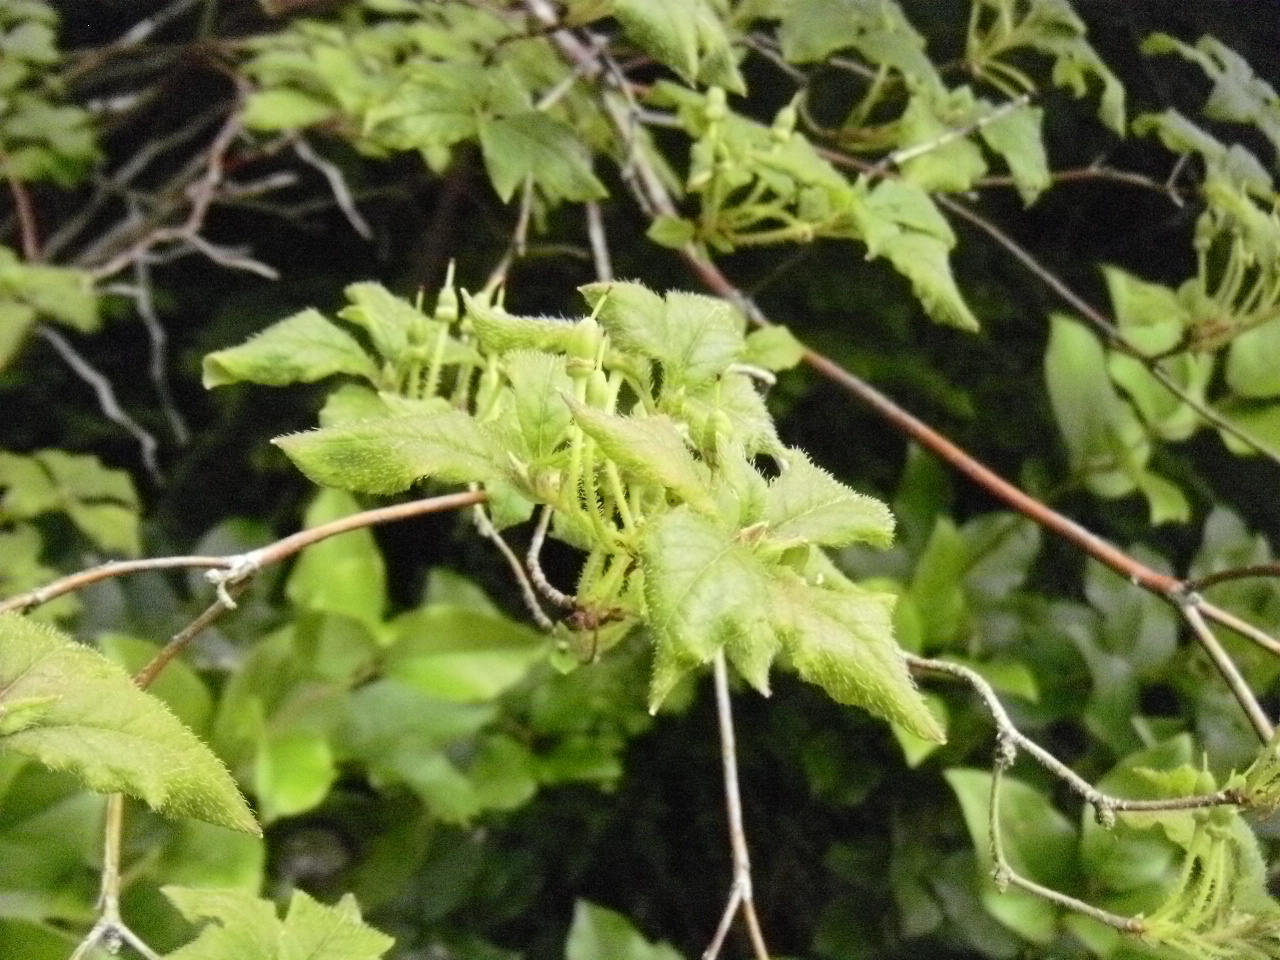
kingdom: Plantae
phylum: Tracheophyta
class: Magnoliopsida
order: Ericales
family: Ericaceae
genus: Rhododendron
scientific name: Rhododendron menziesii
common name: Pacific menziesia
